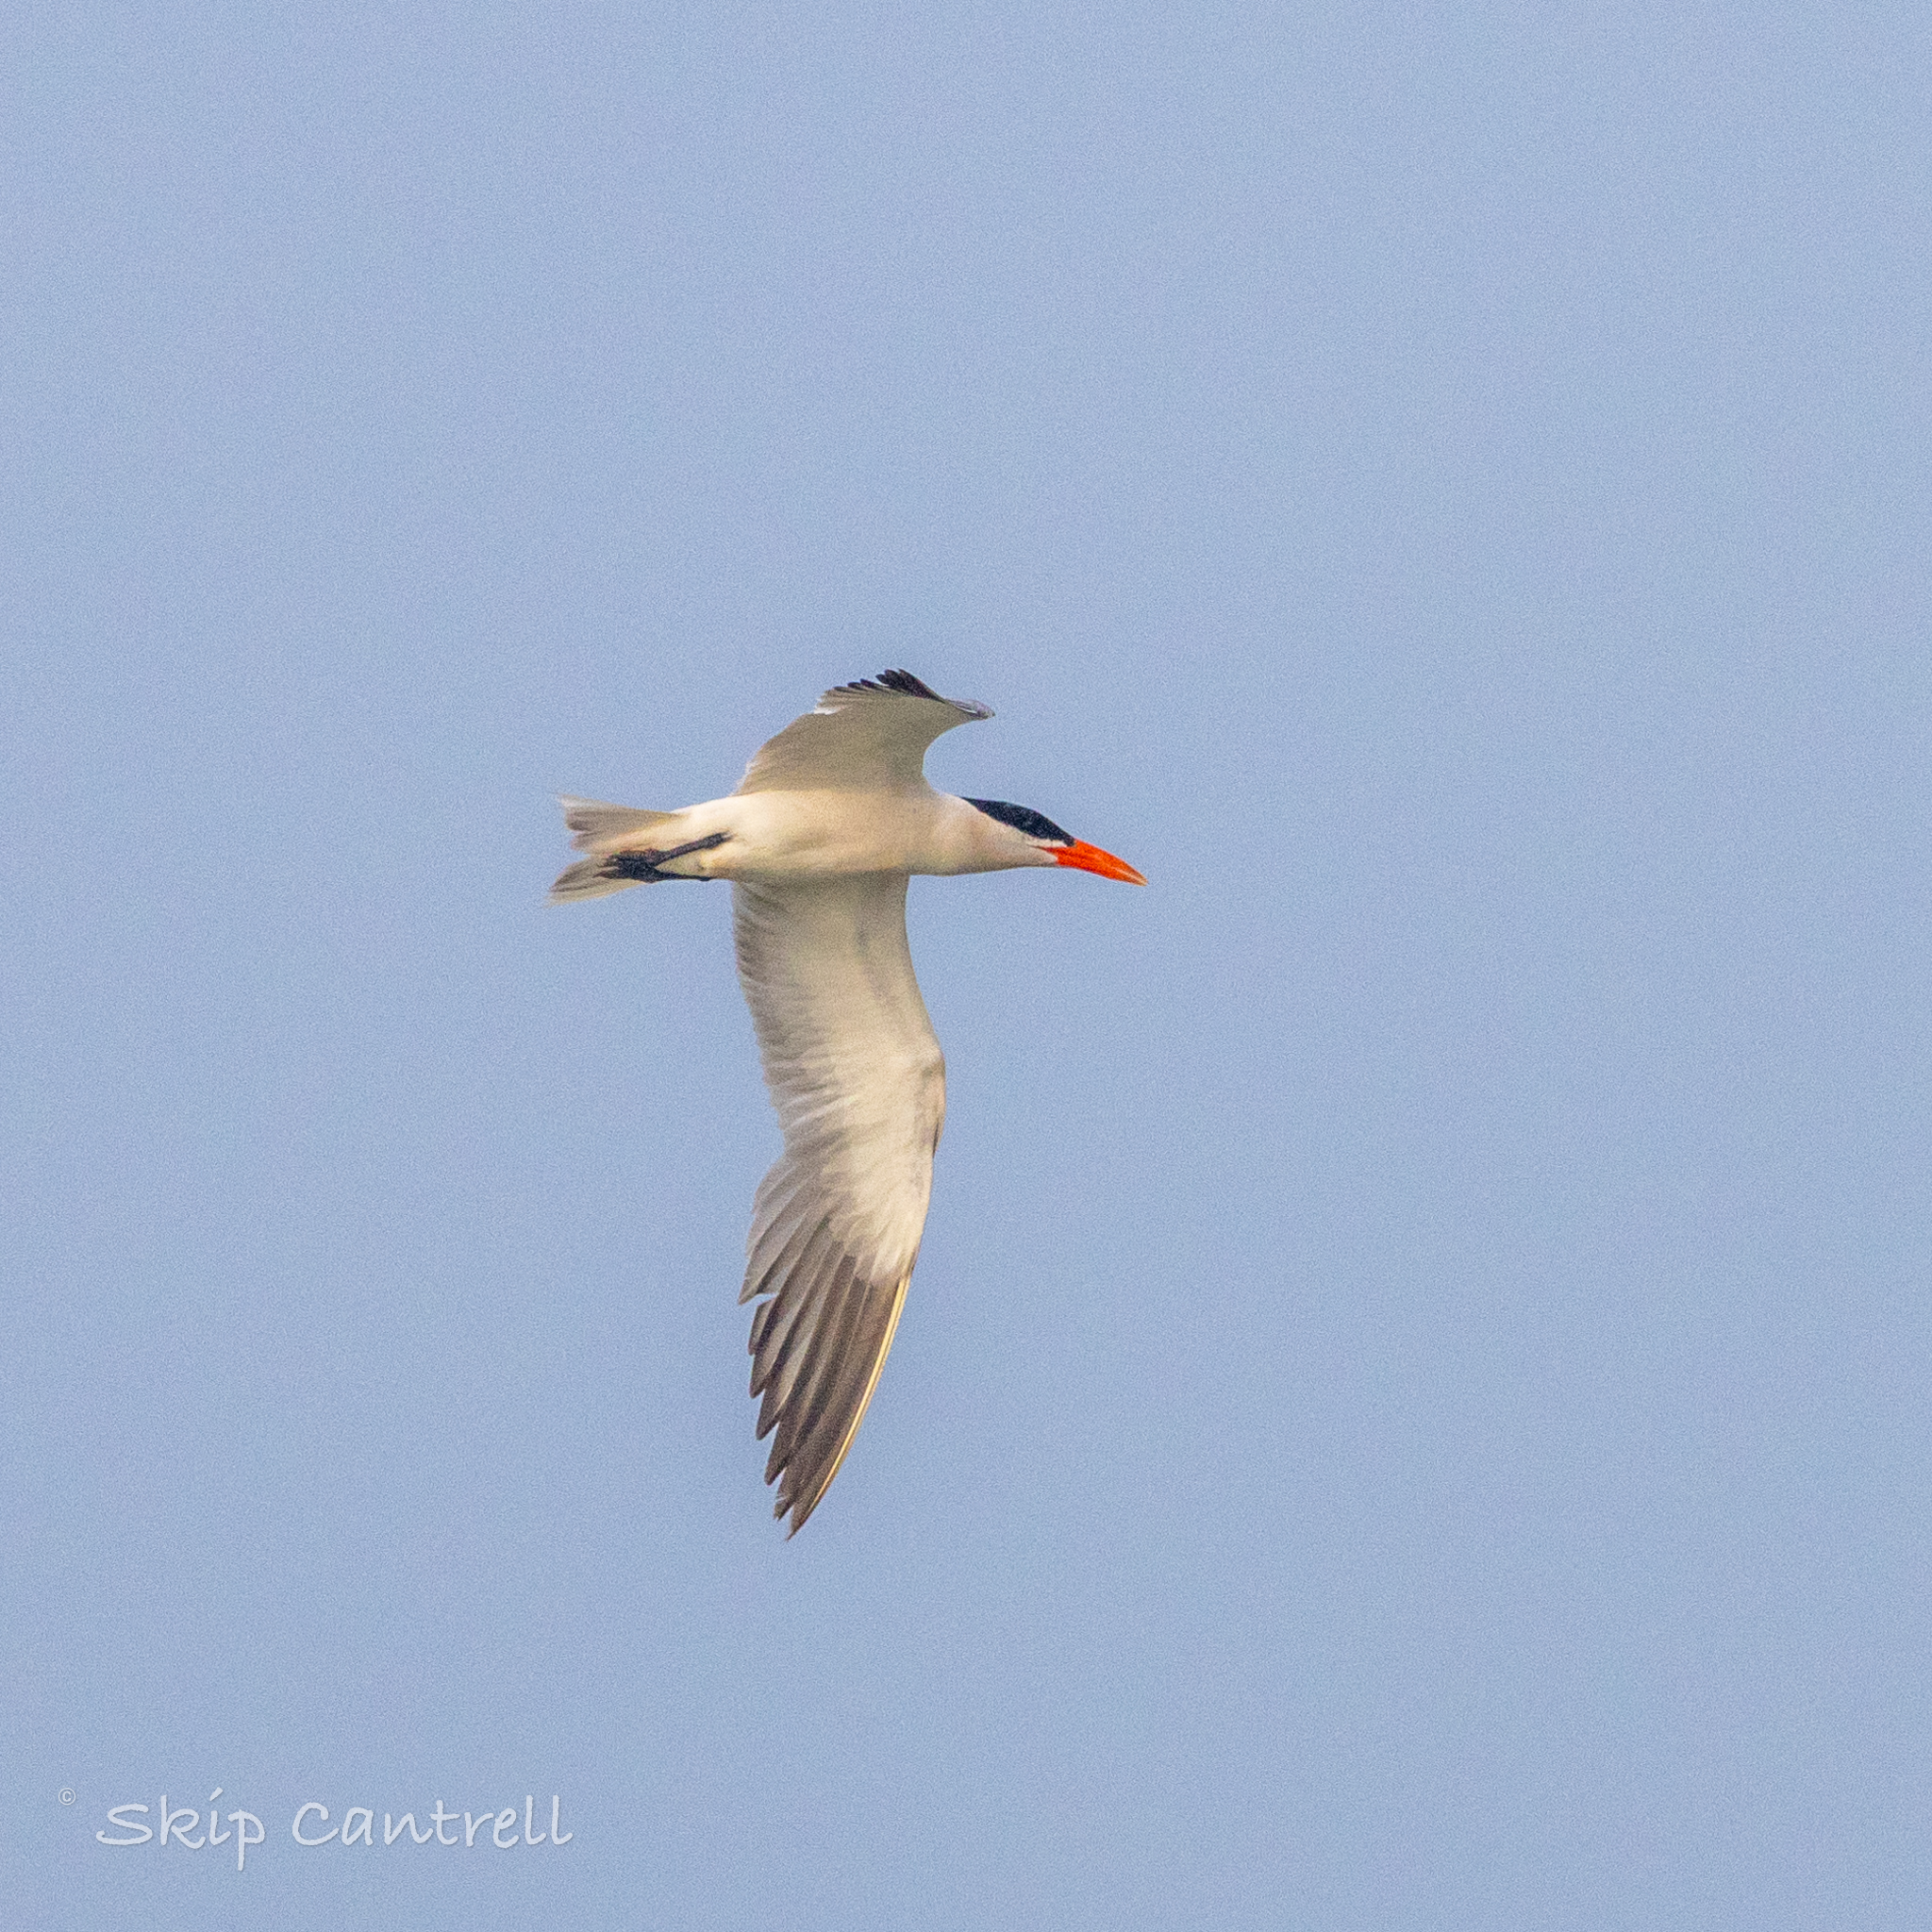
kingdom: Animalia
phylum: Chordata
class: Aves
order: Charadriiformes
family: Laridae
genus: Hydroprogne
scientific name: Hydroprogne caspia
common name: Caspian tern
